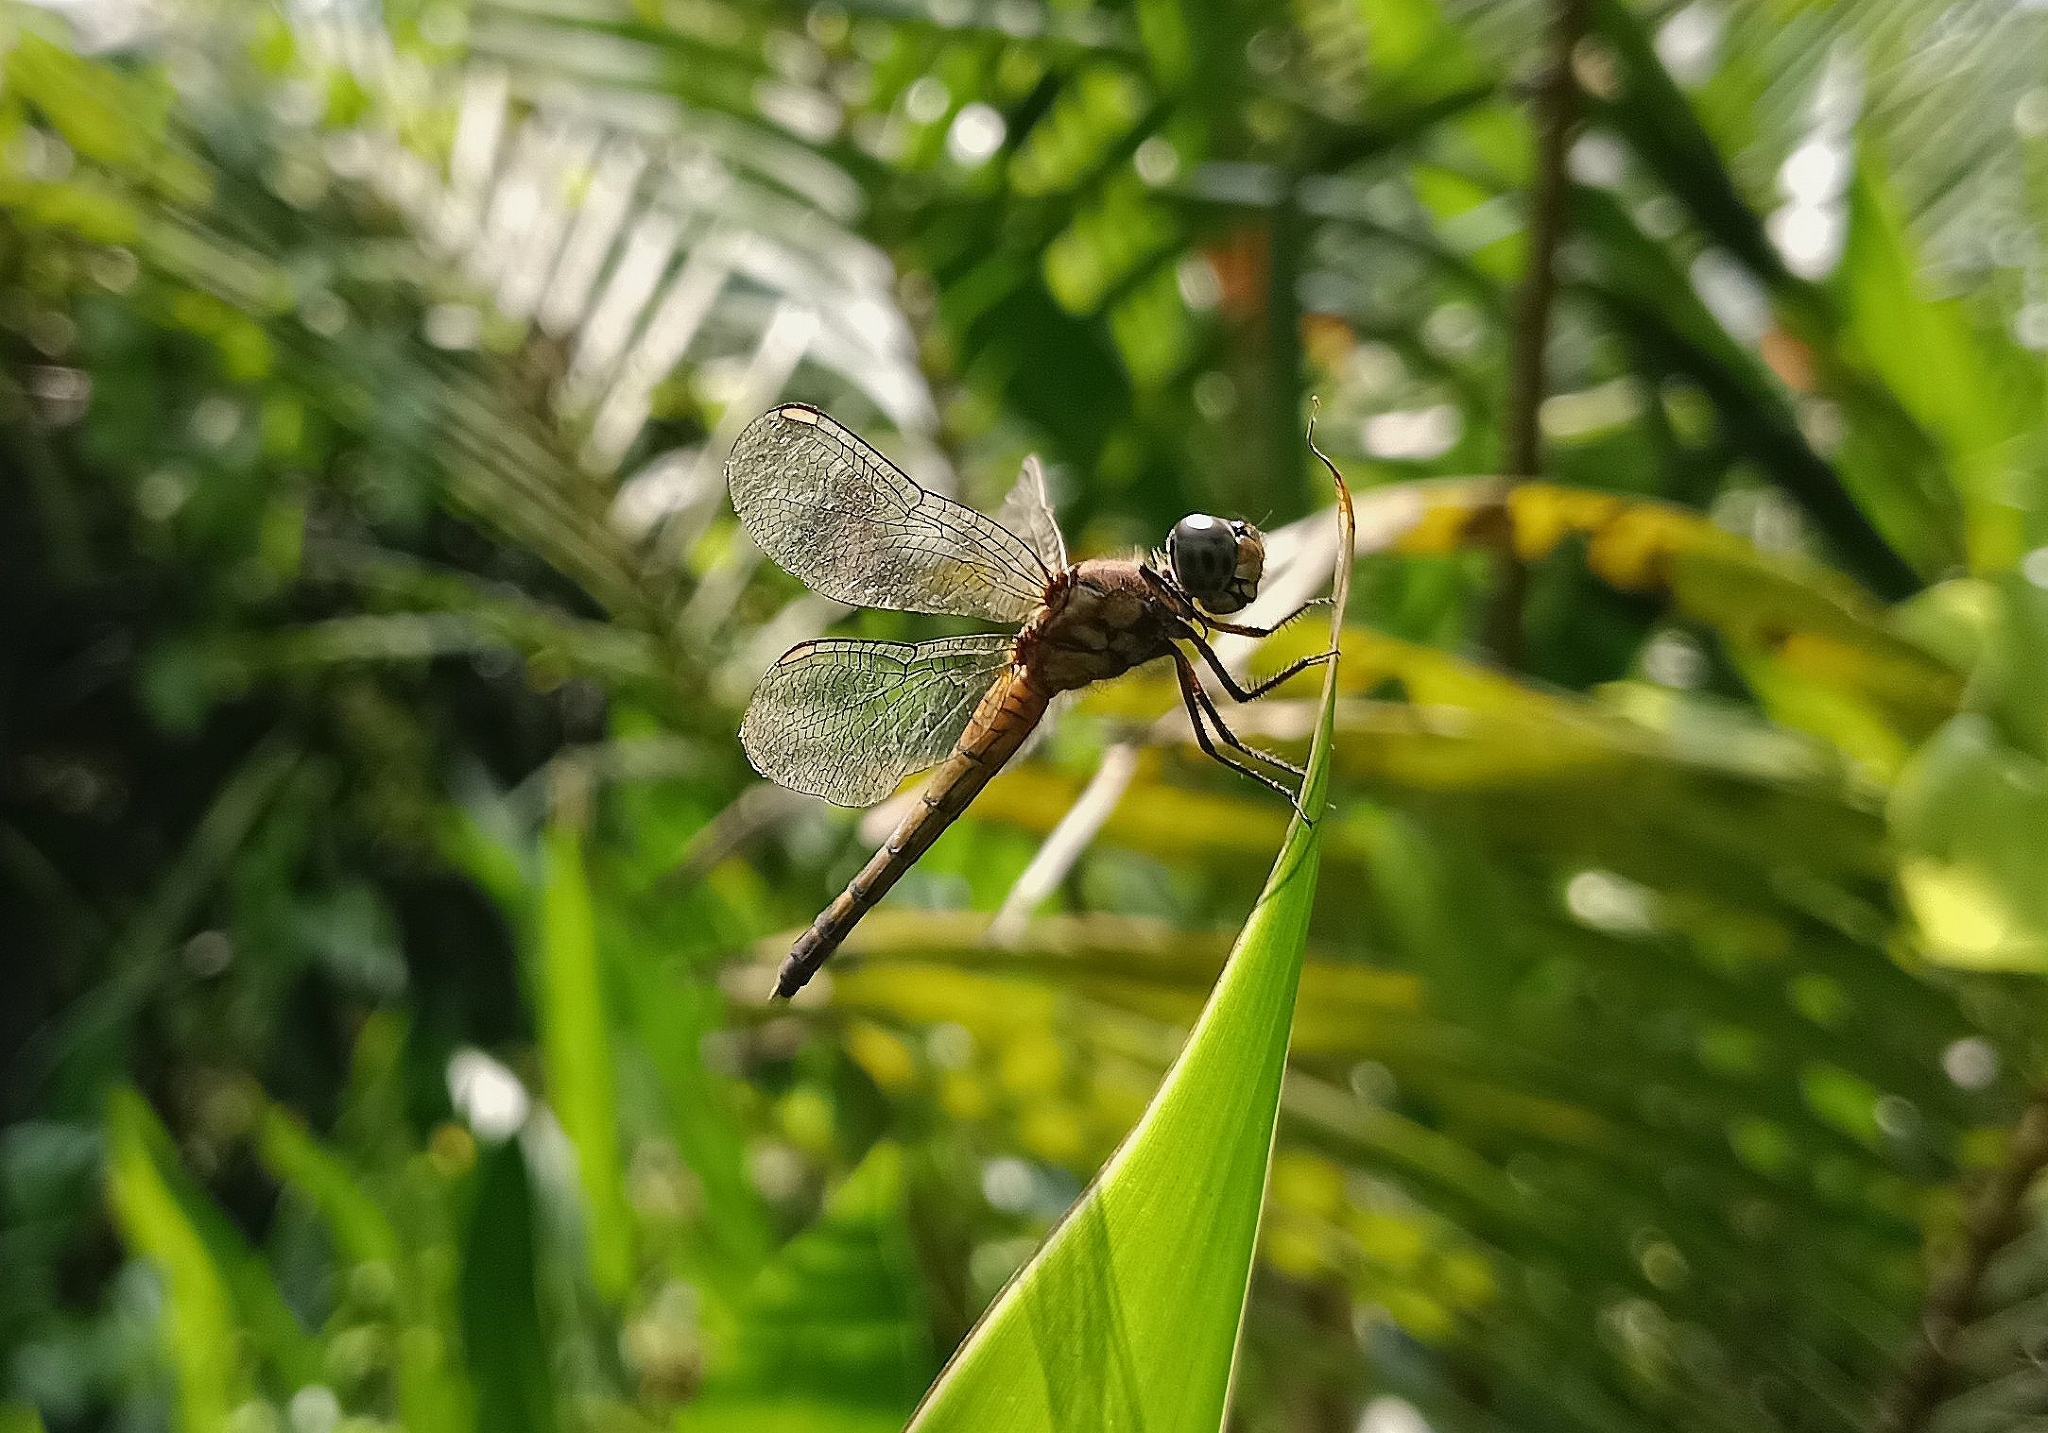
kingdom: Animalia
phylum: Arthropoda
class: Insecta
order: Odonata
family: Libellulidae
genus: Brachydiplax
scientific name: Brachydiplax chalybea
